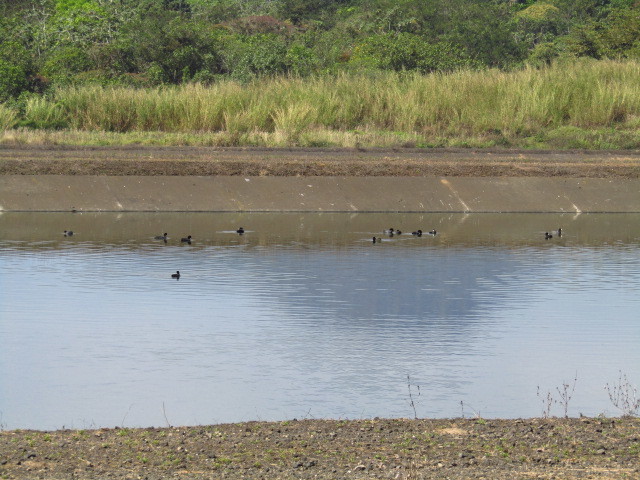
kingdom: Animalia
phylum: Chordata
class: Aves
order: Gruiformes
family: Rallidae
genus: Fulica
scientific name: Fulica americana
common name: American coot
